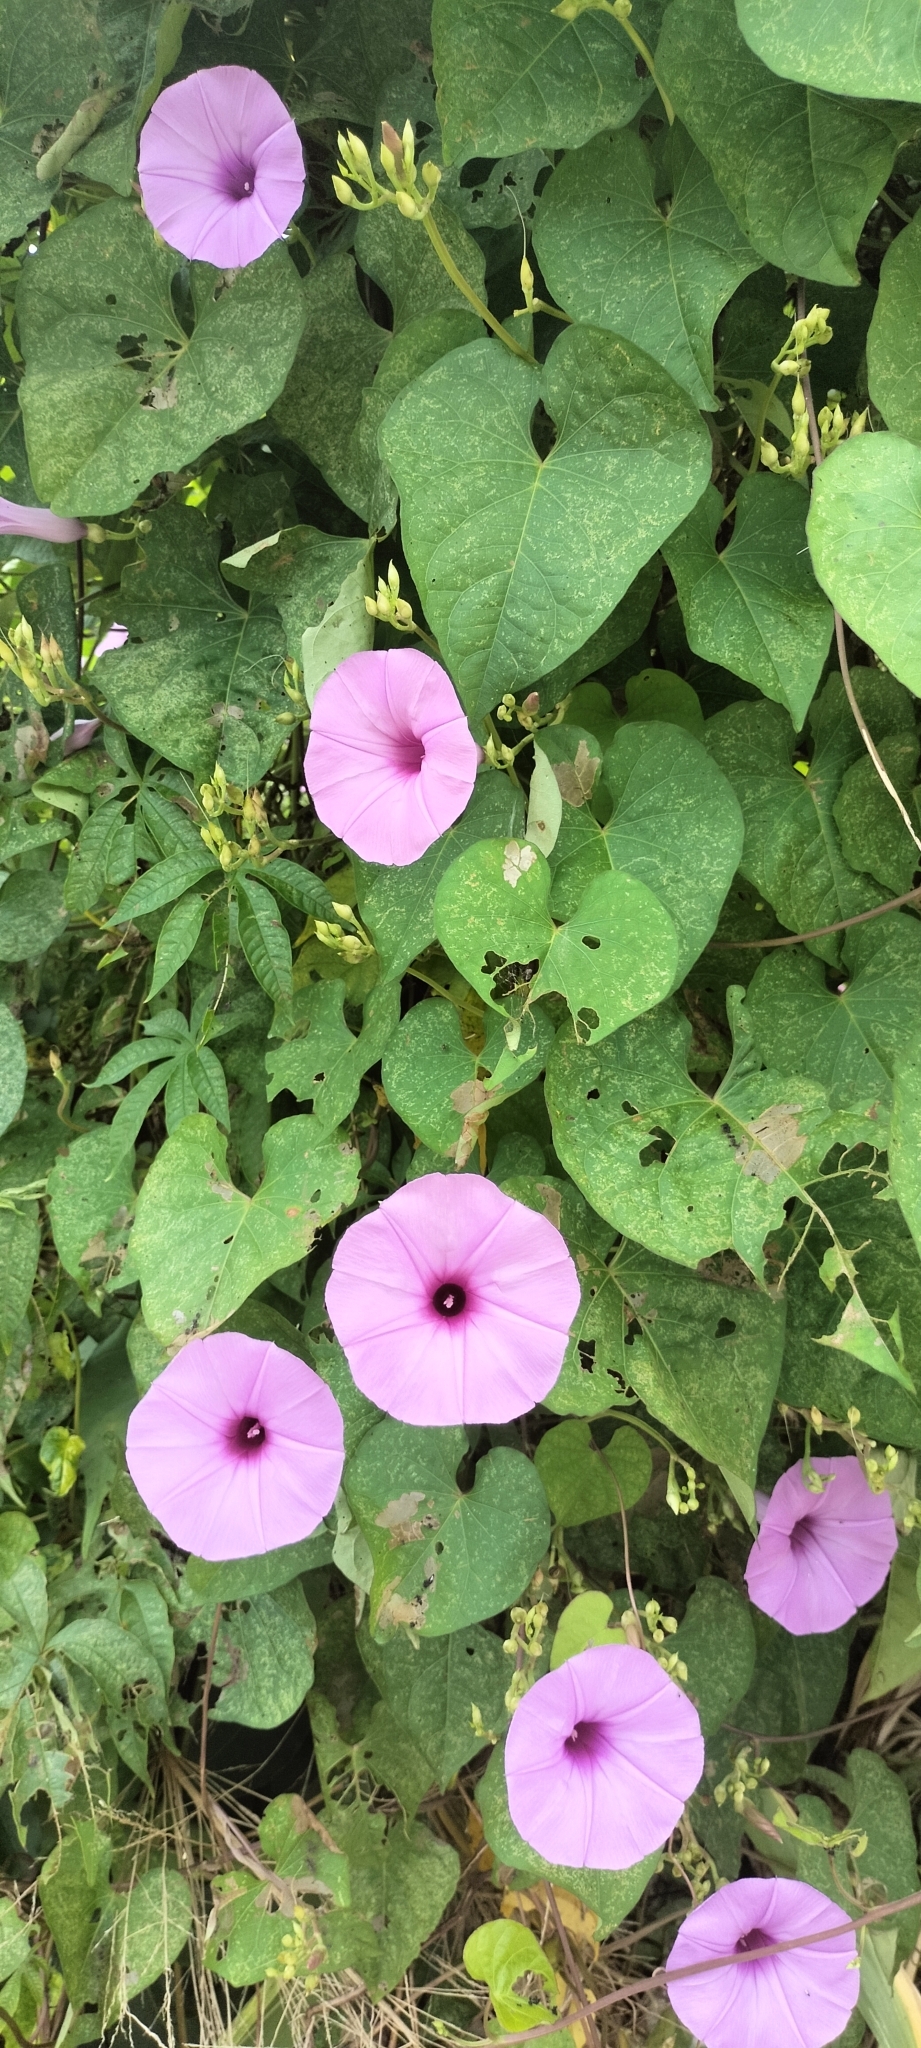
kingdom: Plantae
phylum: Tracheophyta
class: Magnoliopsida
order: Solanales
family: Convolvulaceae
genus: Ipomoea
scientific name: Ipomoea splendor-sylvae
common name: Morning glory
